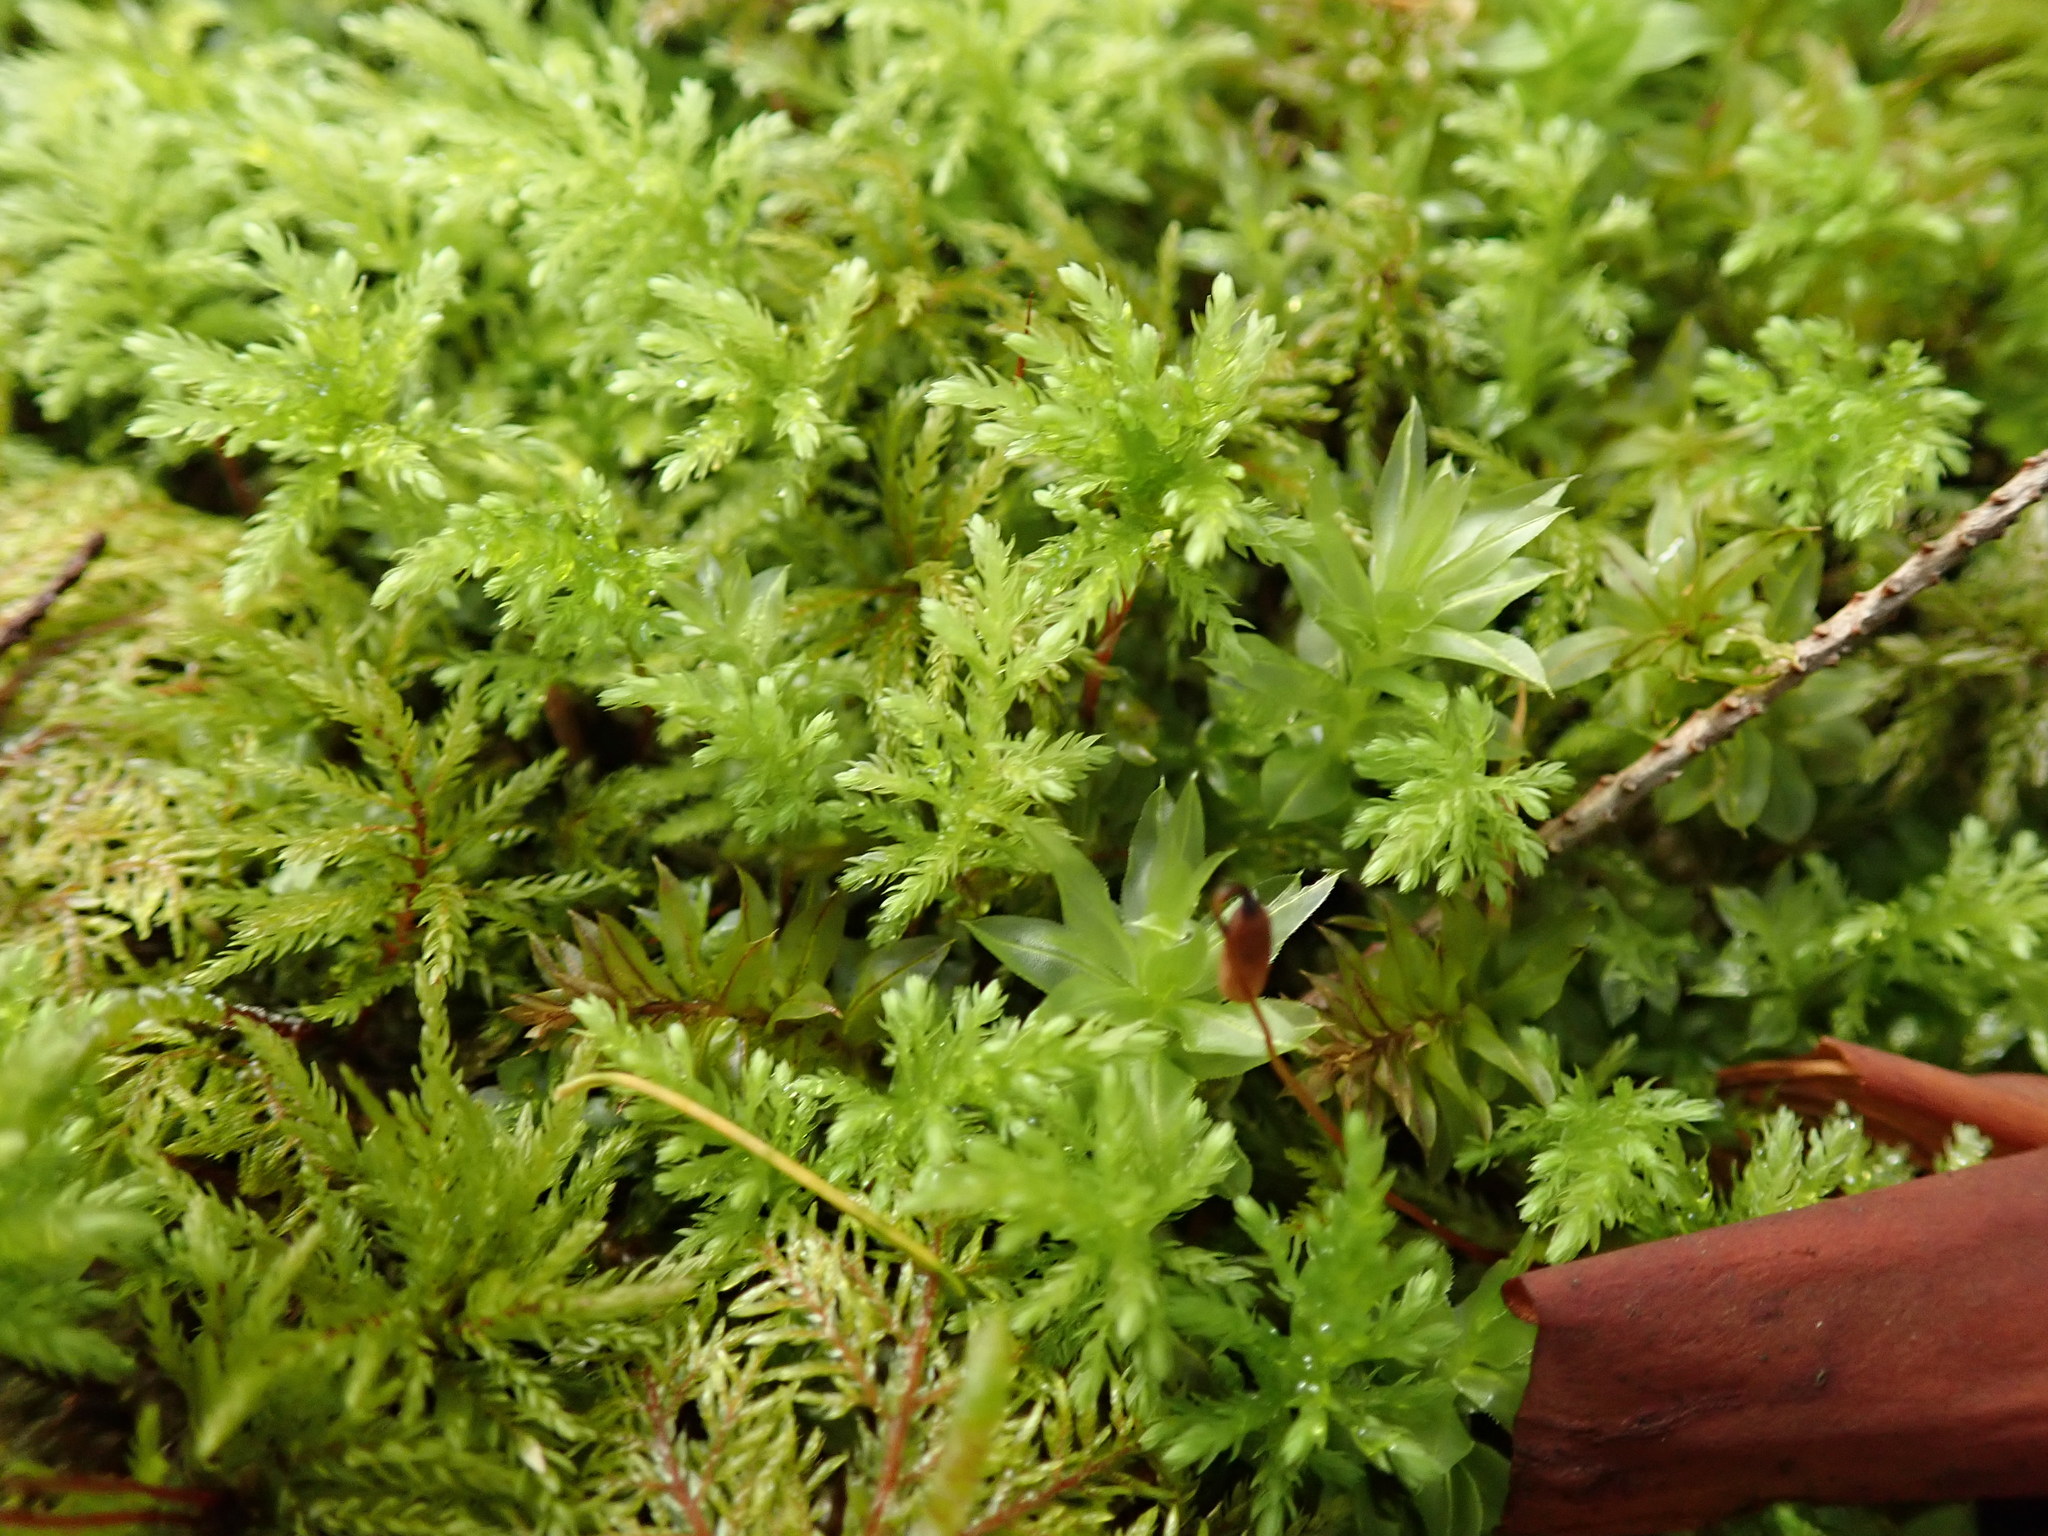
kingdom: Plantae
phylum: Bryophyta
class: Bryopsida
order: Bryales
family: Mniaceae
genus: Leucolepis
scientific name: Leucolepis acanthoneura
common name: Leucolepis umbrella moss
